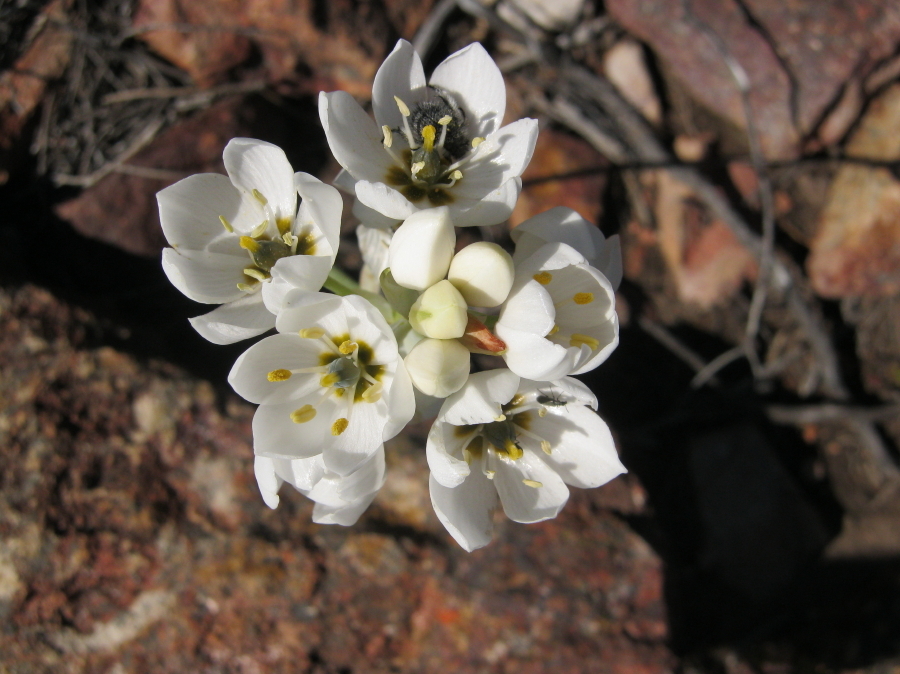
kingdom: Plantae
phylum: Tracheophyta
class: Liliopsida
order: Asparagales
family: Asparagaceae
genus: Ornithogalum
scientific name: Ornithogalum dubium
